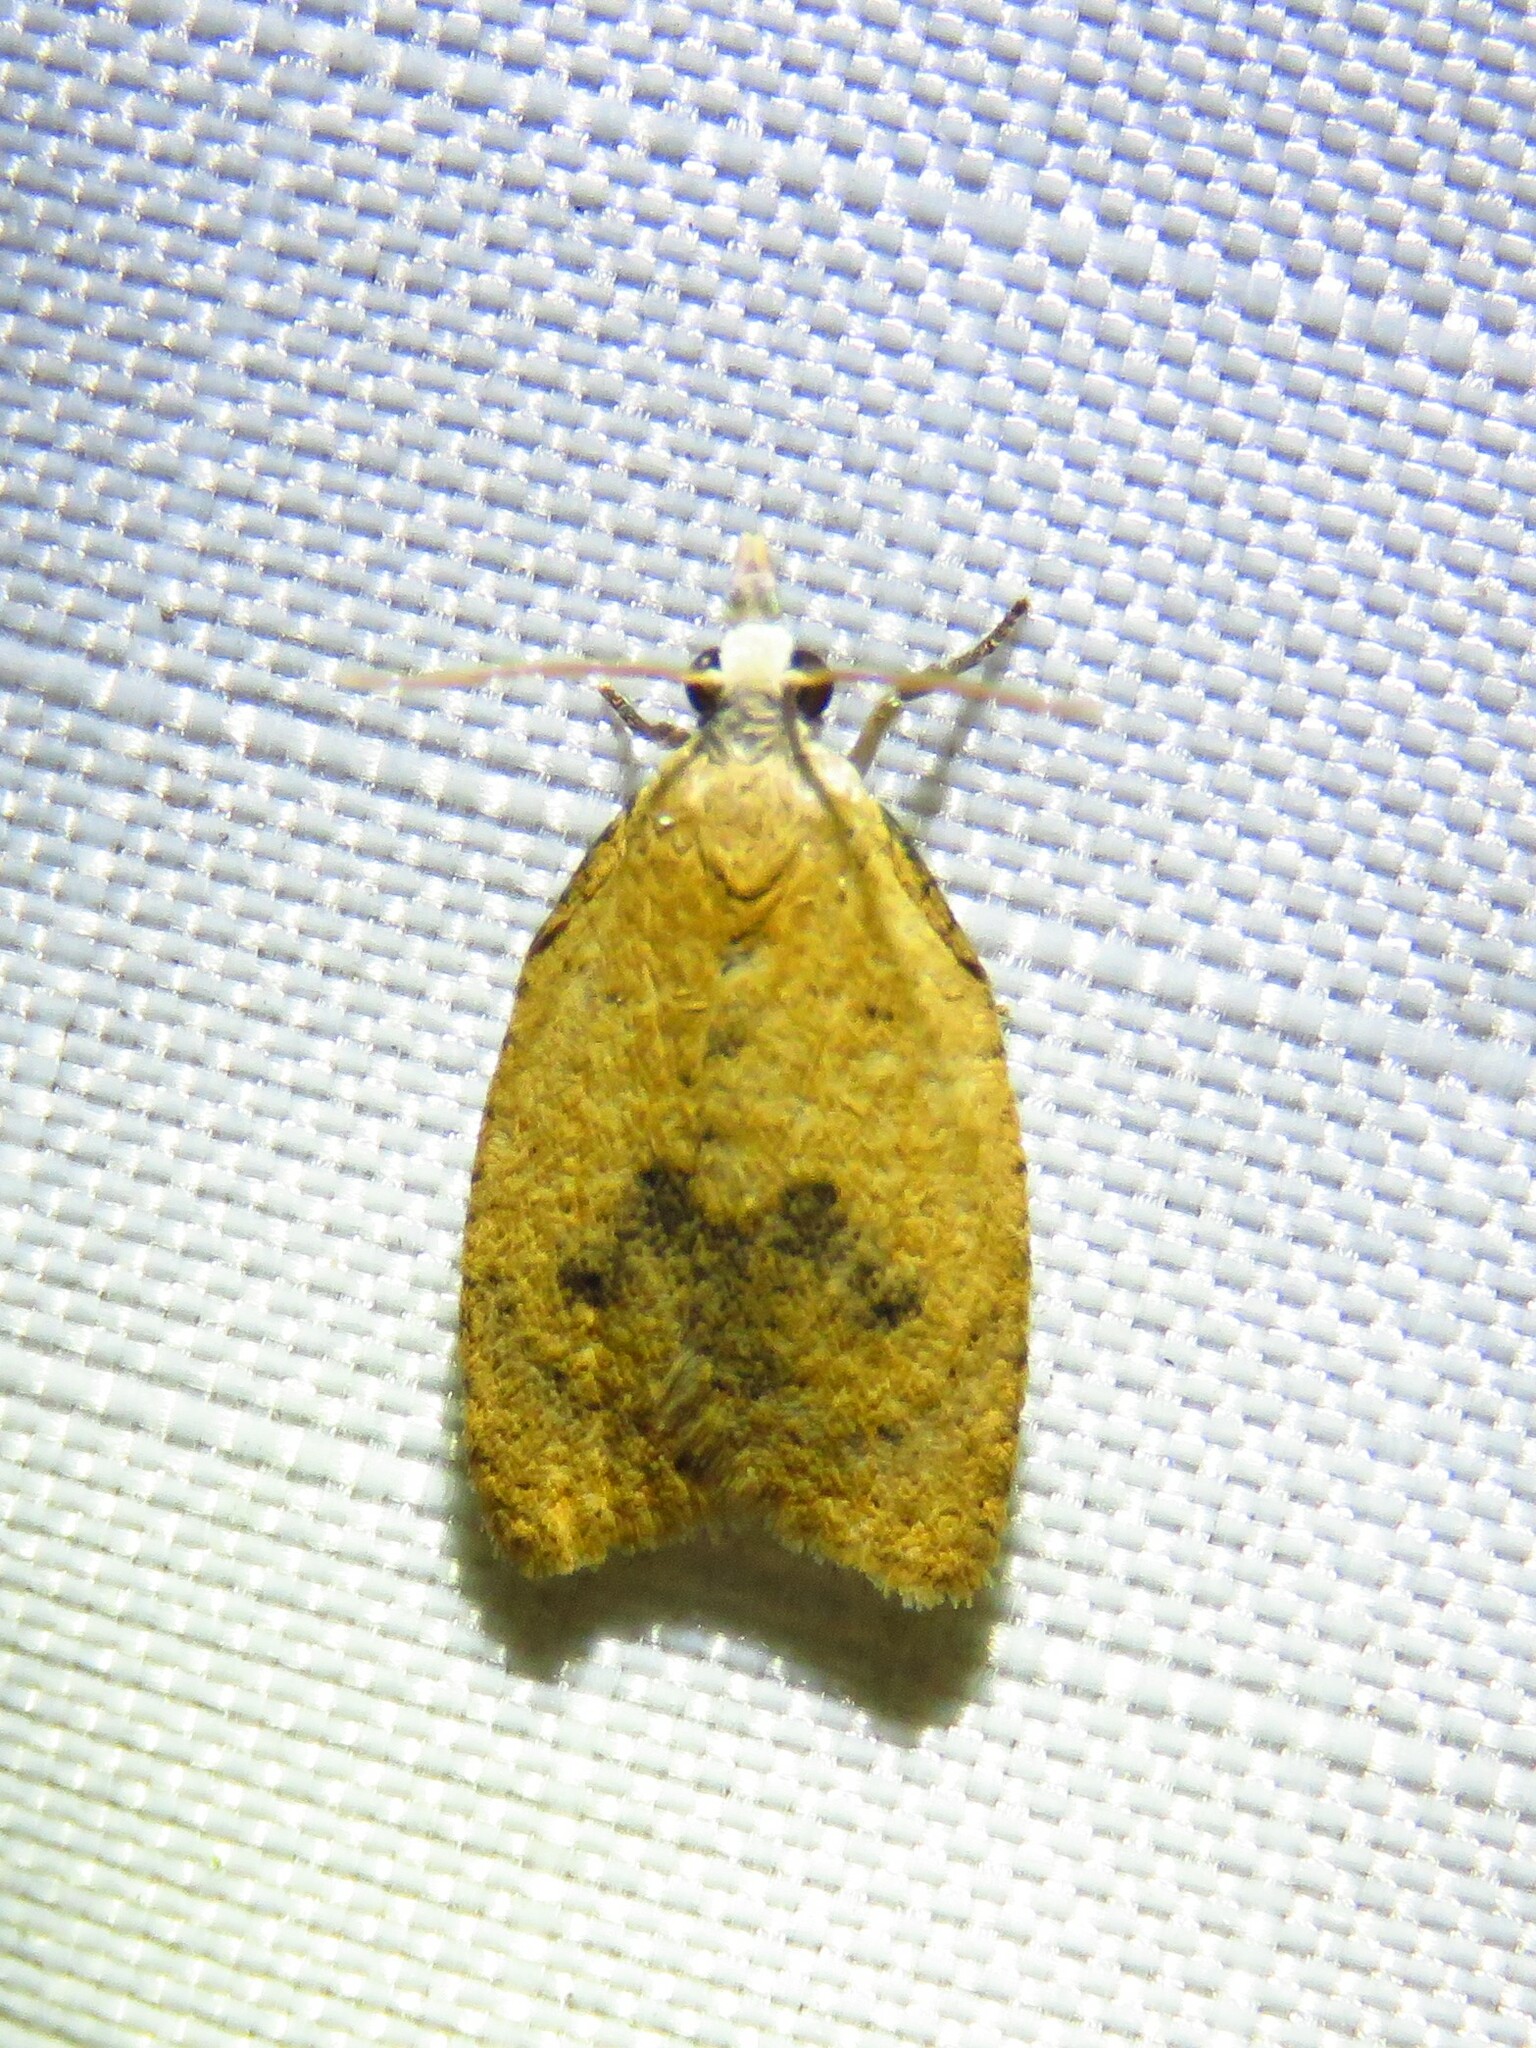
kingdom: Animalia
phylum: Arthropoda
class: Insecta
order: Lepidoptera
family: Tortricidae
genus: Sparganothoides
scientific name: Sparganothoides lentiginosana
